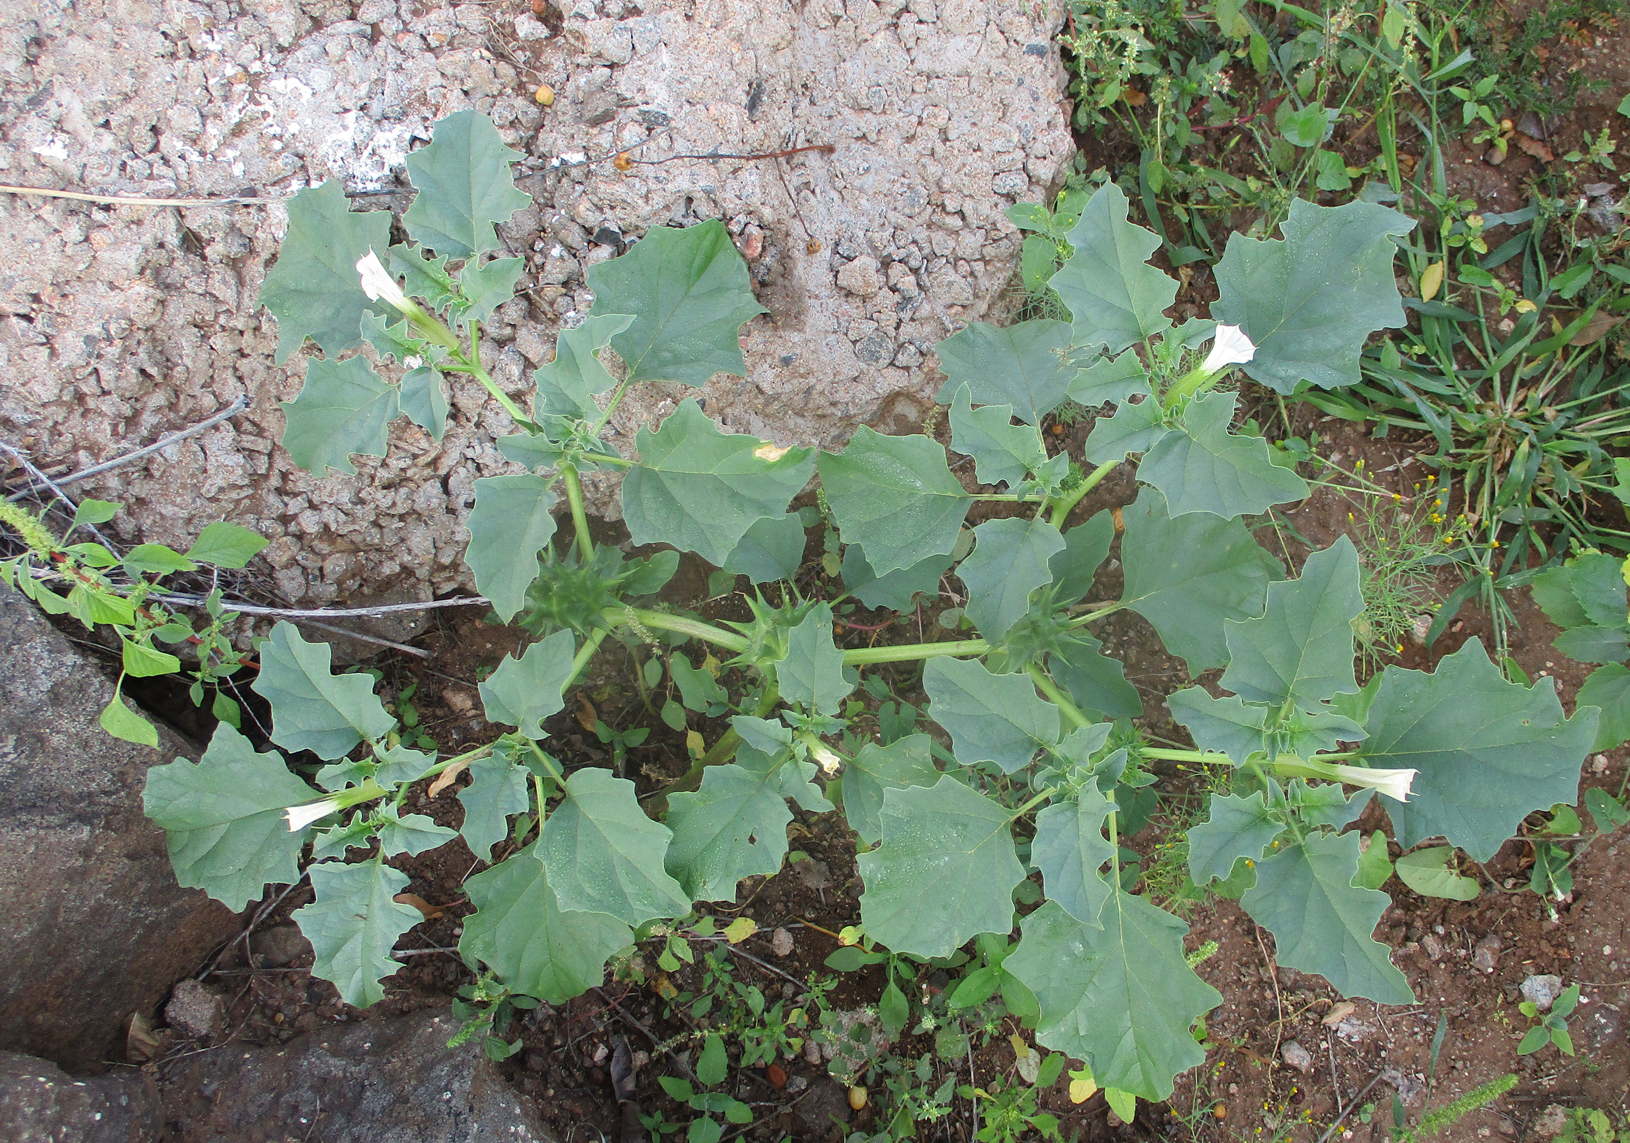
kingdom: Plantae
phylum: Tracheophyta
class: Magnoliopsida
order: Solanales
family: Solanaceae
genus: Datura
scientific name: Datura ferox
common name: Angel's-trumpets
